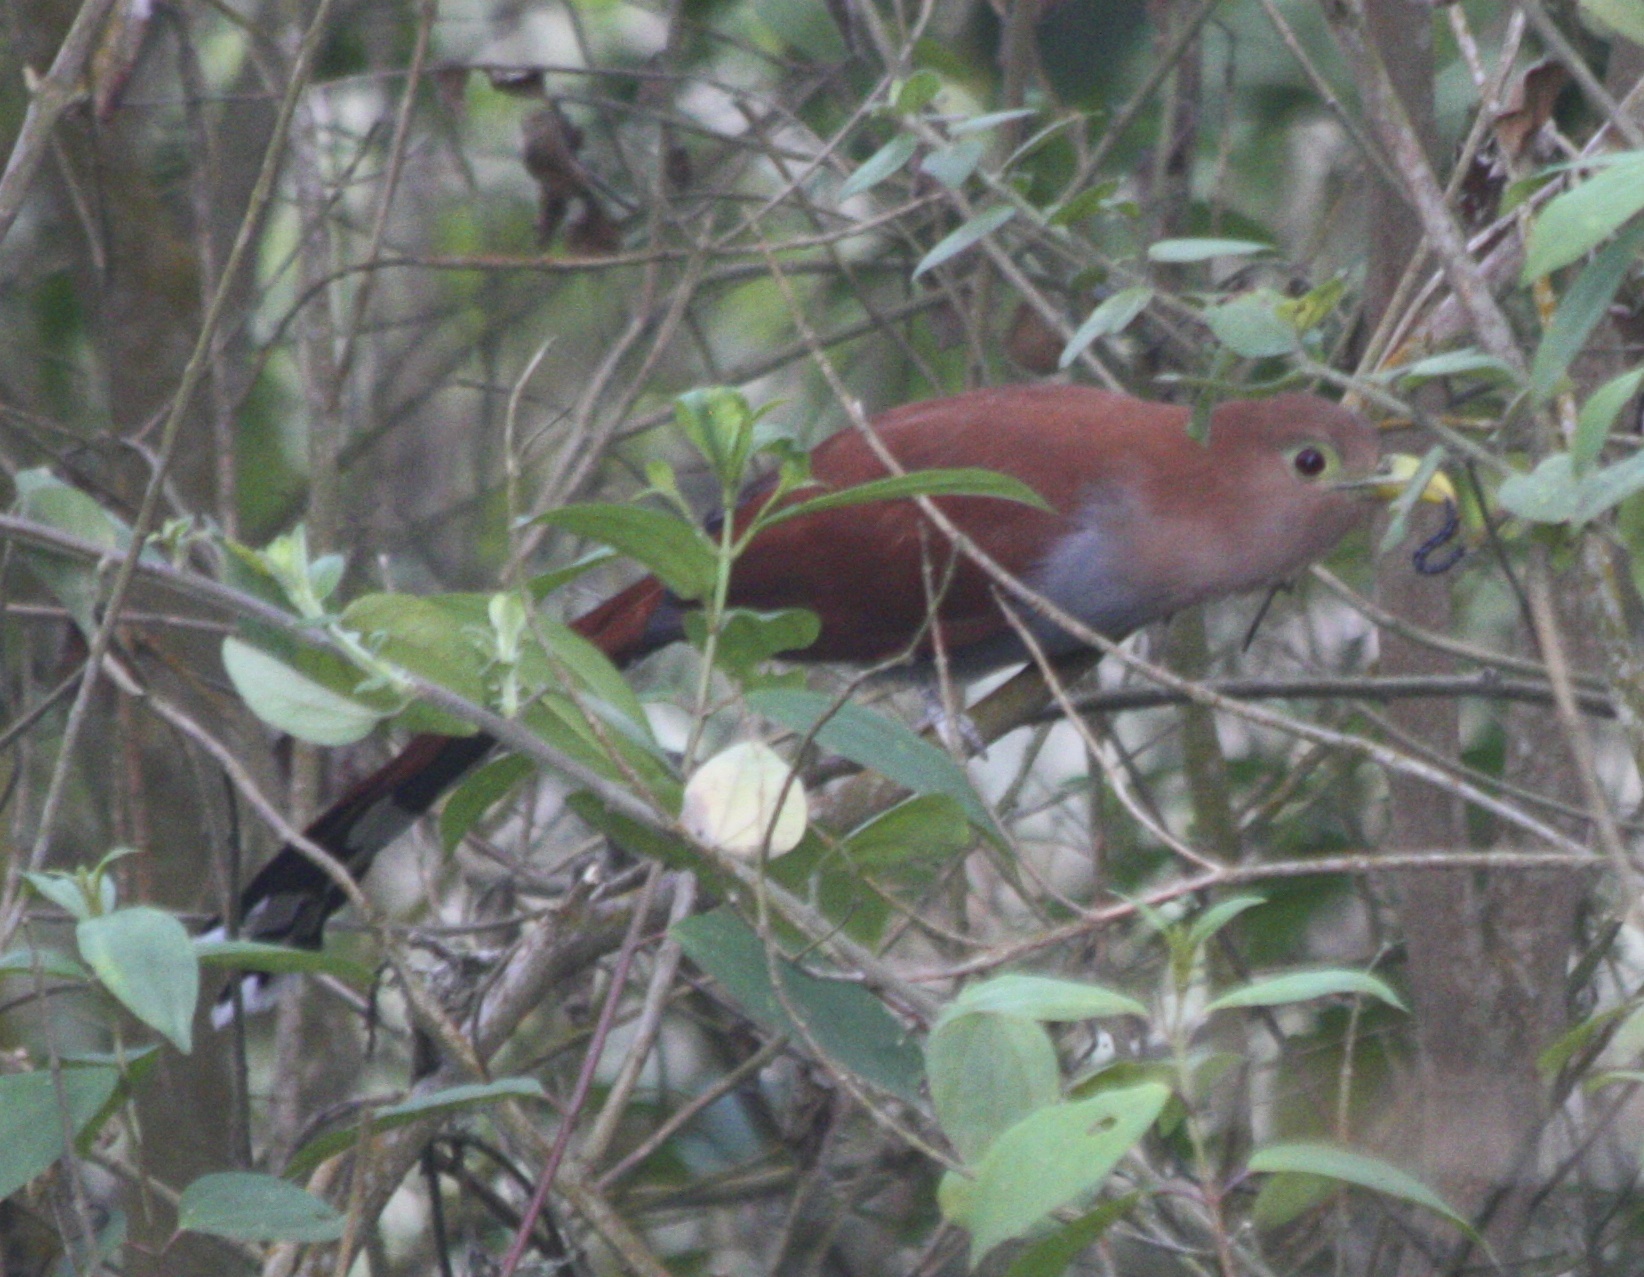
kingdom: Animalia
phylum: Chordata
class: Aves
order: Cuculiformes
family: Cuculidae
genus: Piaya
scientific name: Piaya cayana
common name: Squirrel cuckoo
